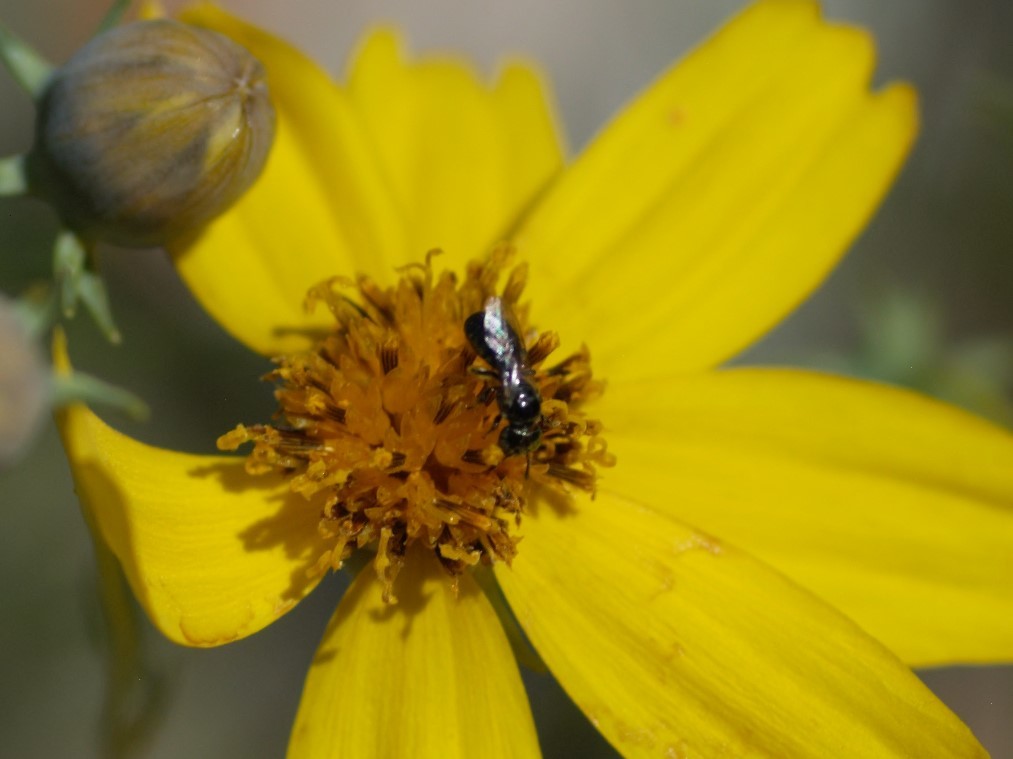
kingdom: Animalia
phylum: Arthropoda
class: Insecta
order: Hymenoptera
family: Apidae
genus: Ceratina
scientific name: Ceratina
